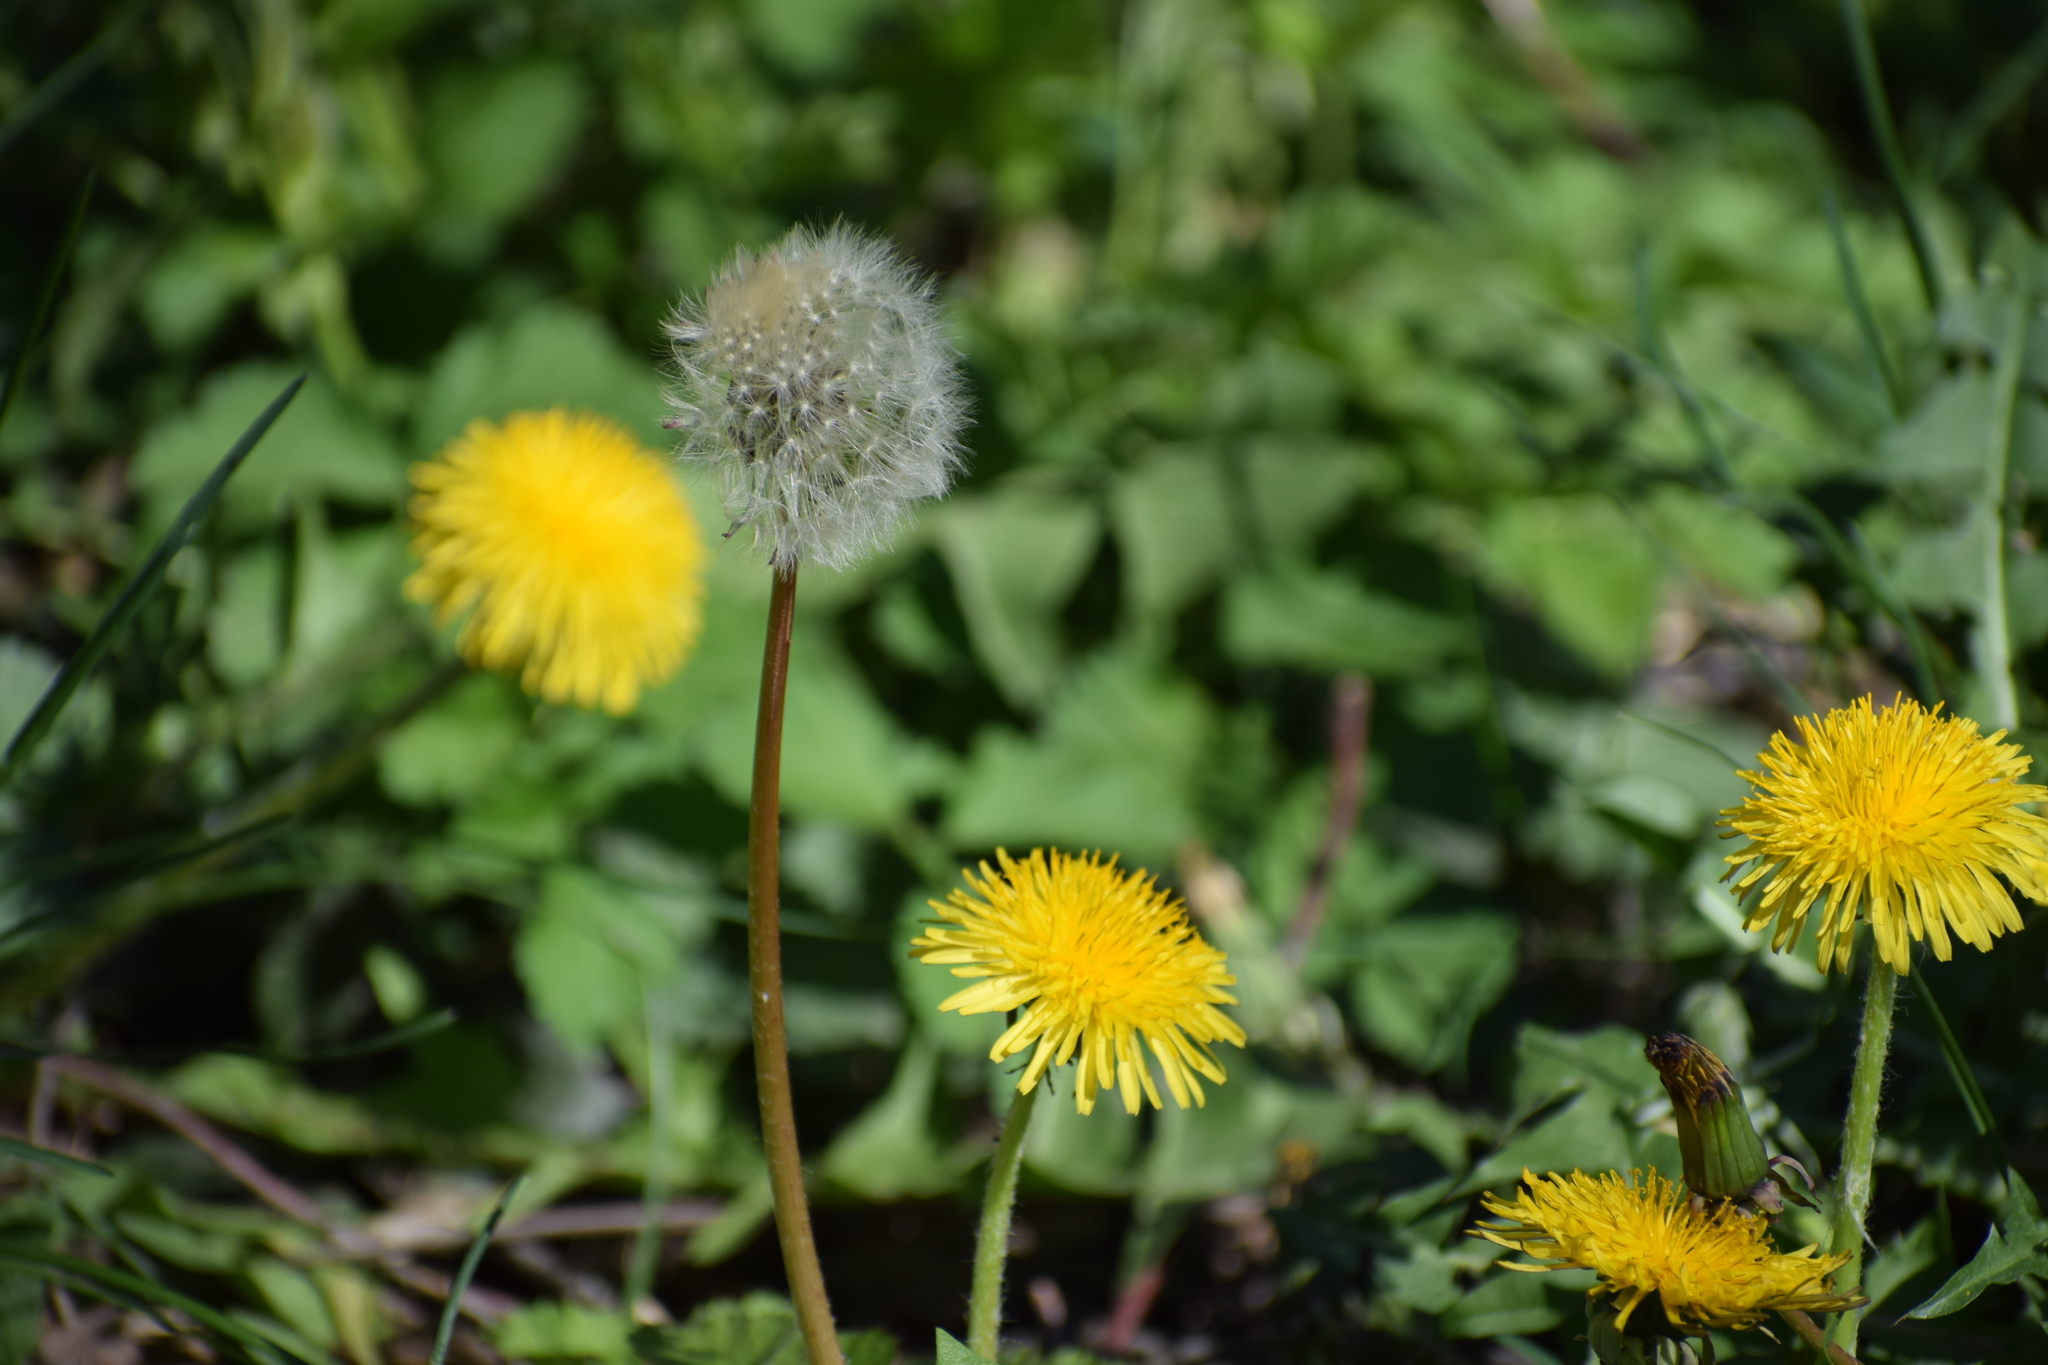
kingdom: Plantae
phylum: Tracheophyta
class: Magnoliopsida
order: Asterales
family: Asteraceae
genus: Taraxacum
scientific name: Taraxacum officinale
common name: Common dandelion
